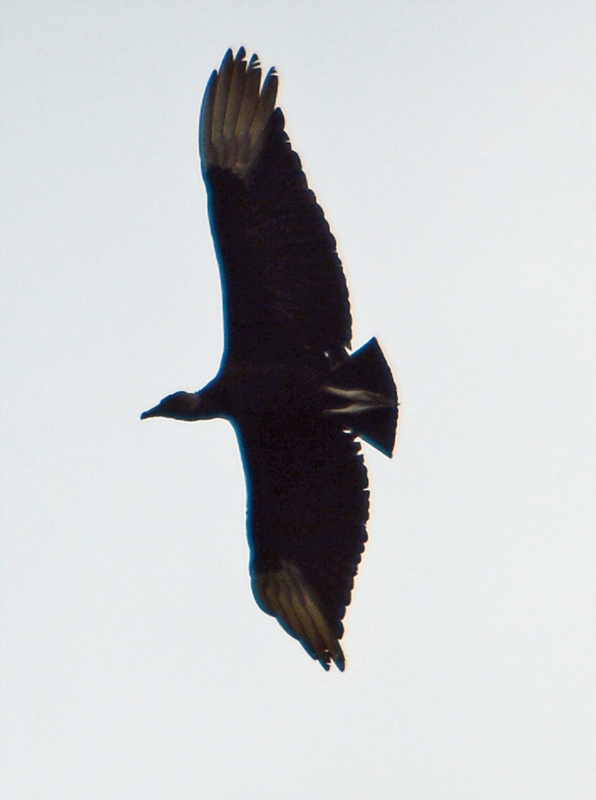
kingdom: Animalia
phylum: Chordata
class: Aves
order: Accipitriformes
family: Cathartidae
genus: Coragyps
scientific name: Coragyps atratus
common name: Black vulture
